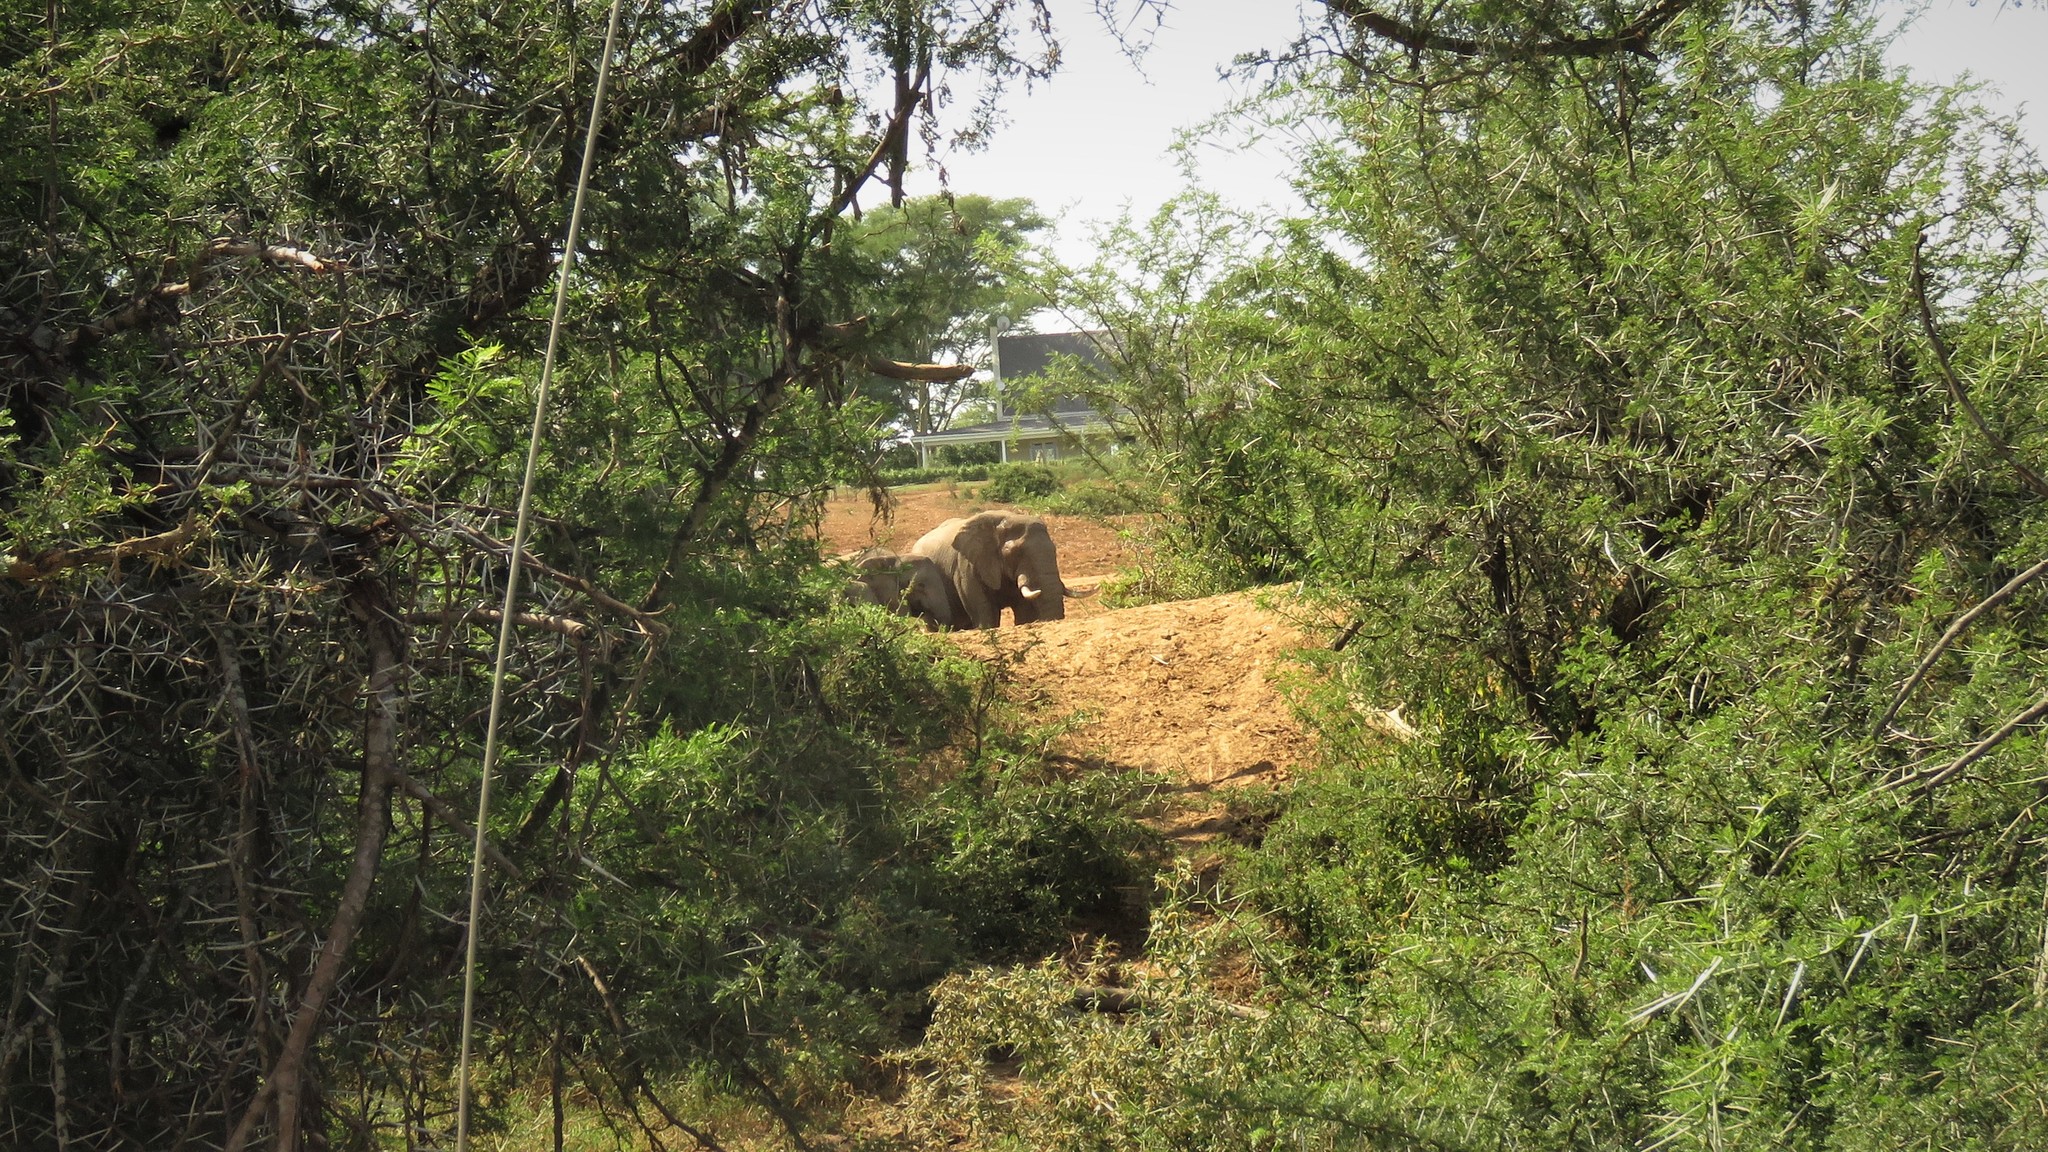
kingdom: Animalia
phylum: Chordata
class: Mammalia
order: Proboscidea
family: Elephantidae
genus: Loxodonta
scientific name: Loxodonta africana
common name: African elephant
